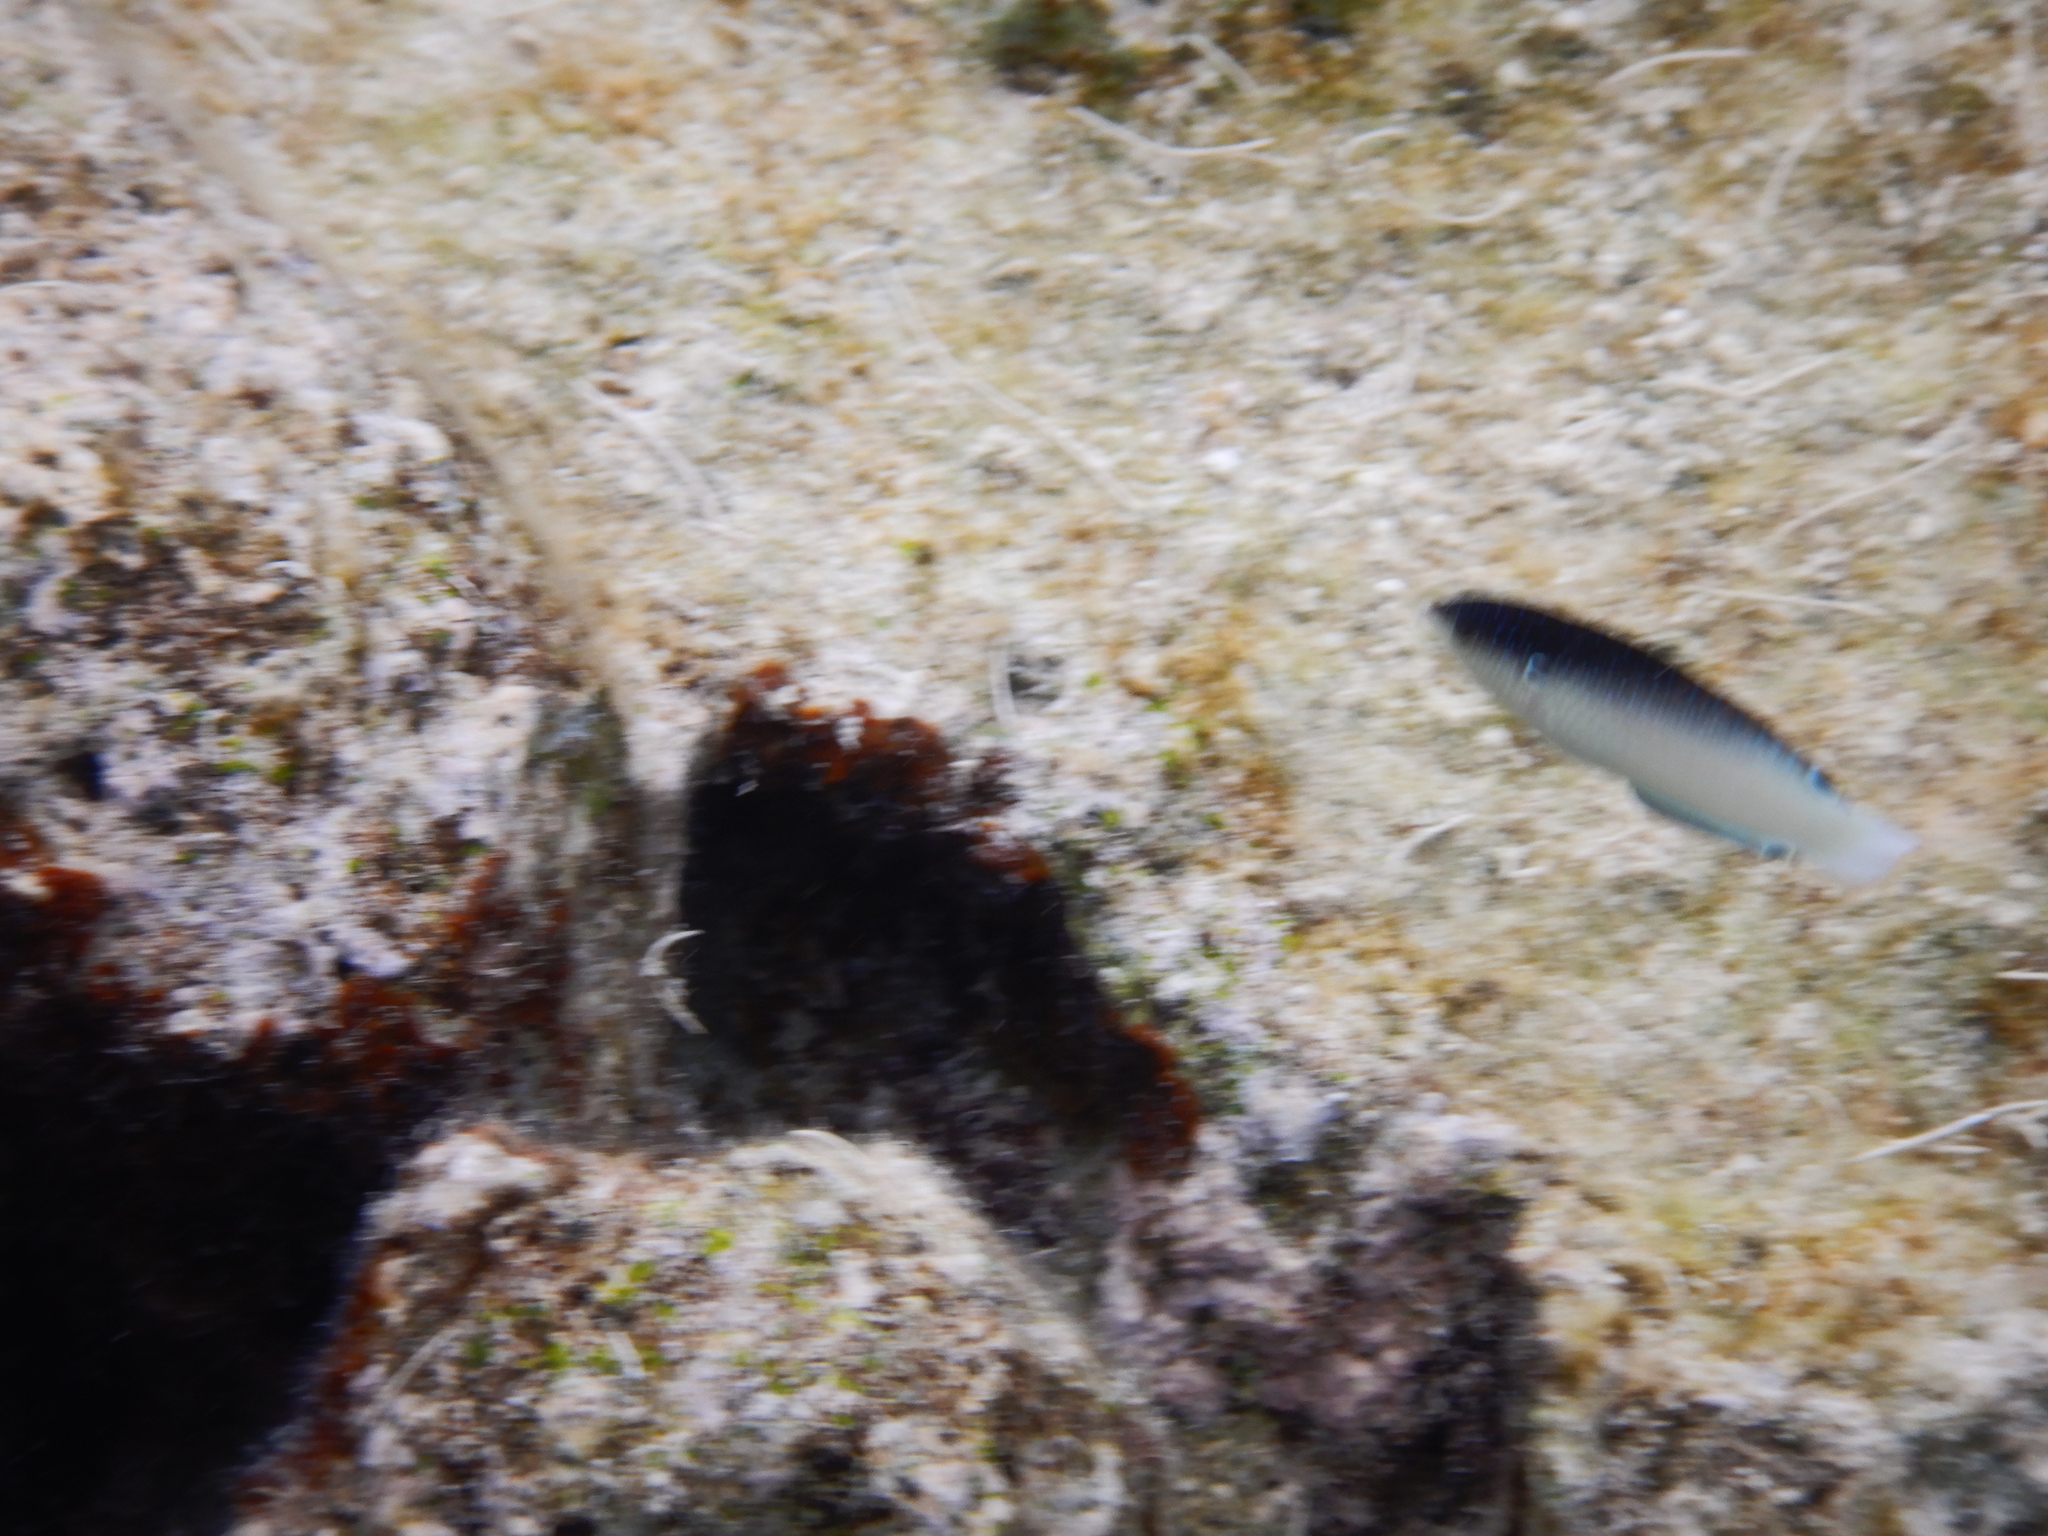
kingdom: Animalia
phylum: Chordata
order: Perciformes
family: Labridae
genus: Anampses
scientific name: Anampses neoguinaicus
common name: New guinea wrasse
